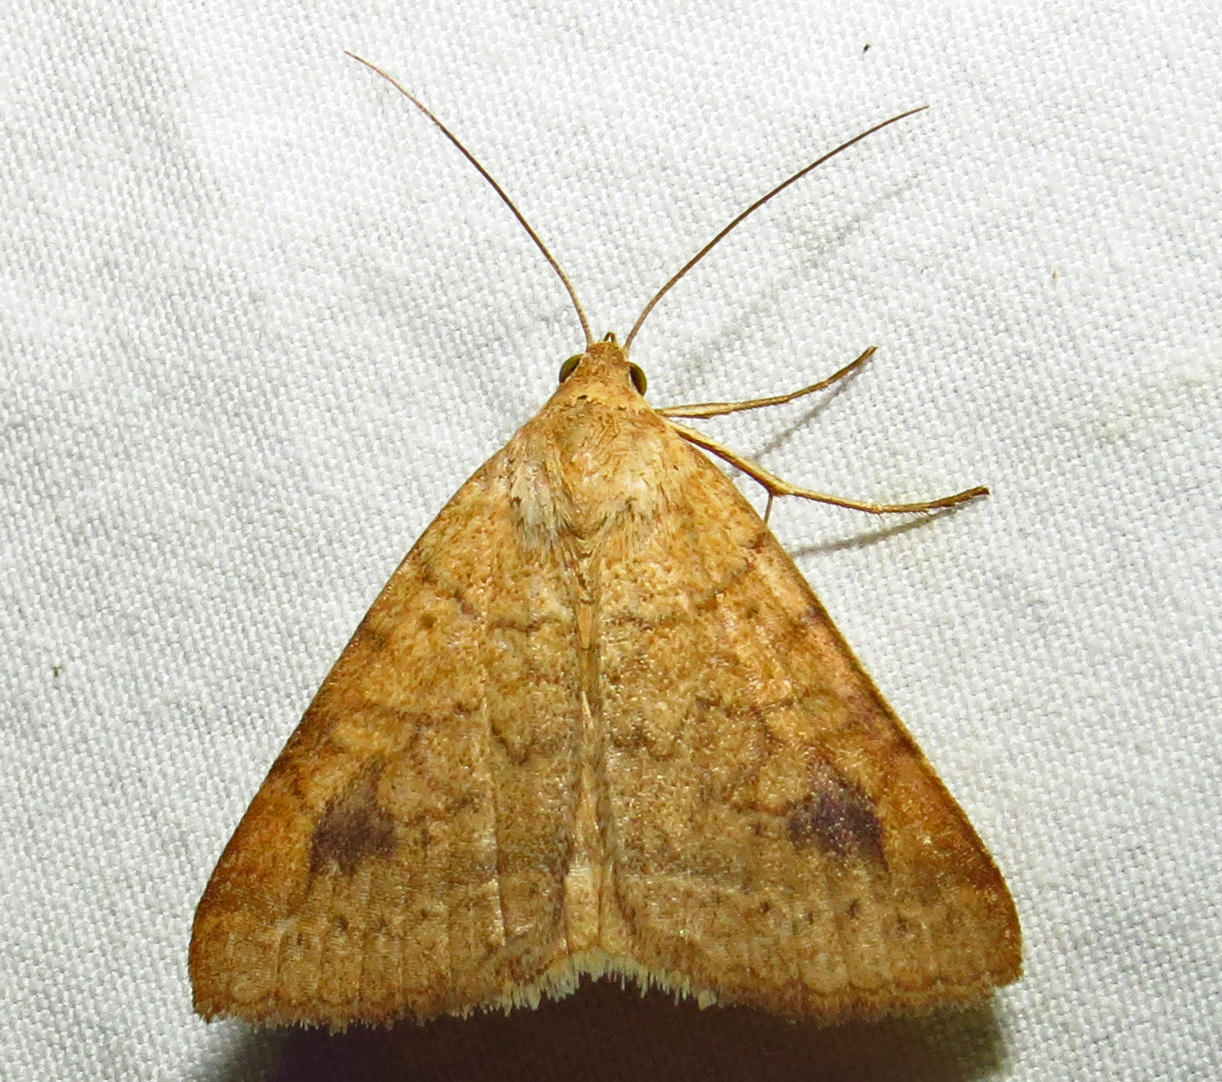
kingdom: Animalia
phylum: Arthropoda
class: Insecta
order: Lepidoptera
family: Erebidae
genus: Caenurgia
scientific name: Caenurgia chloropha
